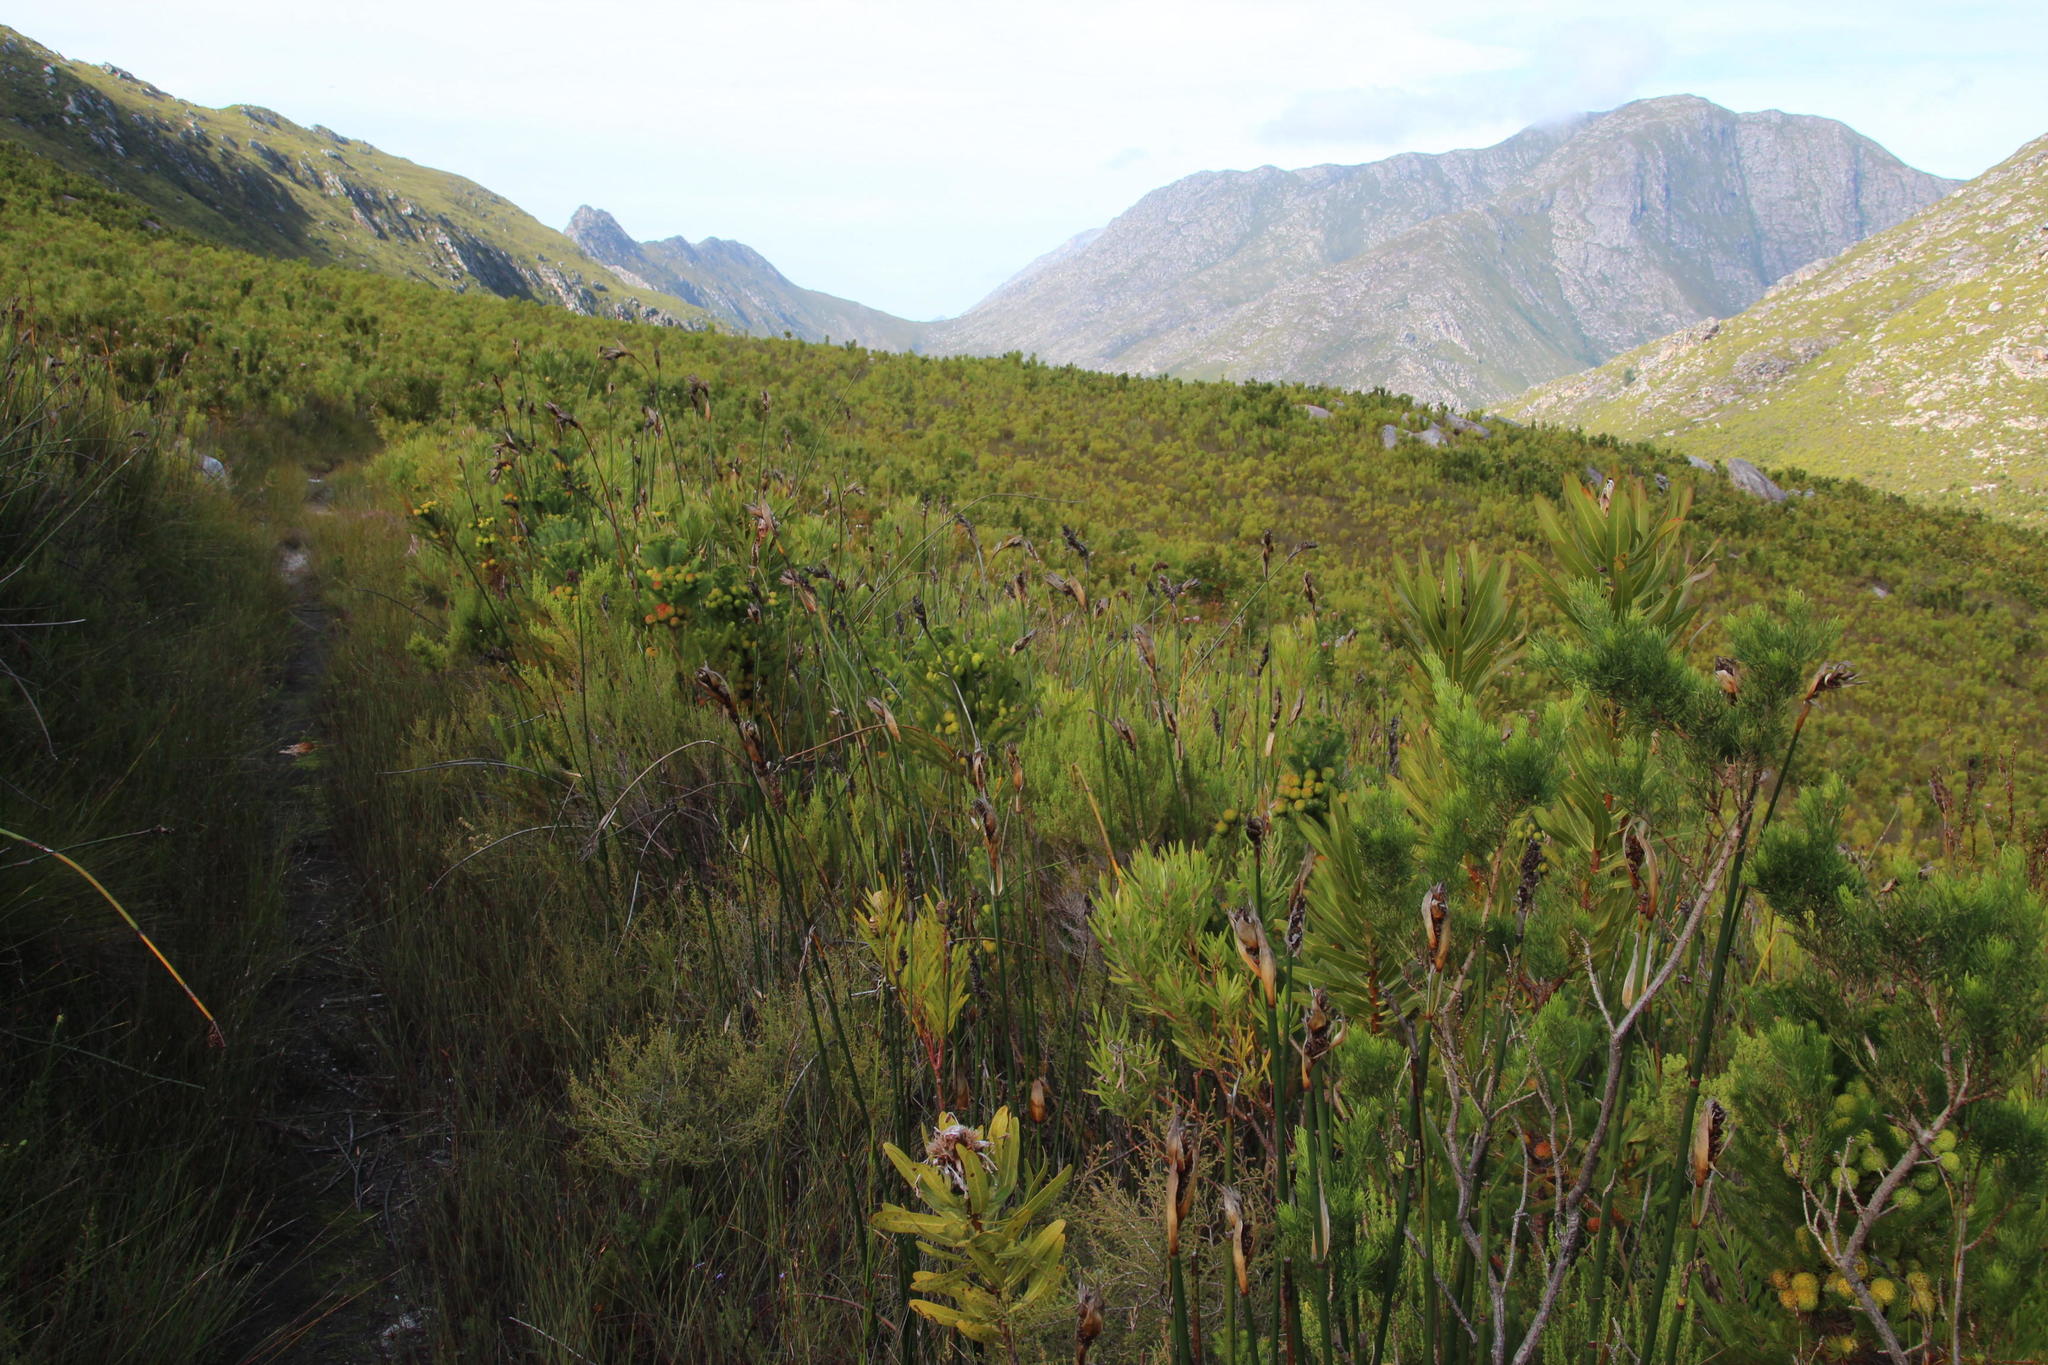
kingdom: Plantae
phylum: Tracheophyta
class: Liliopsida
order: Poales
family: Restionaceae
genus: Elegia
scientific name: Elegia mucronata
